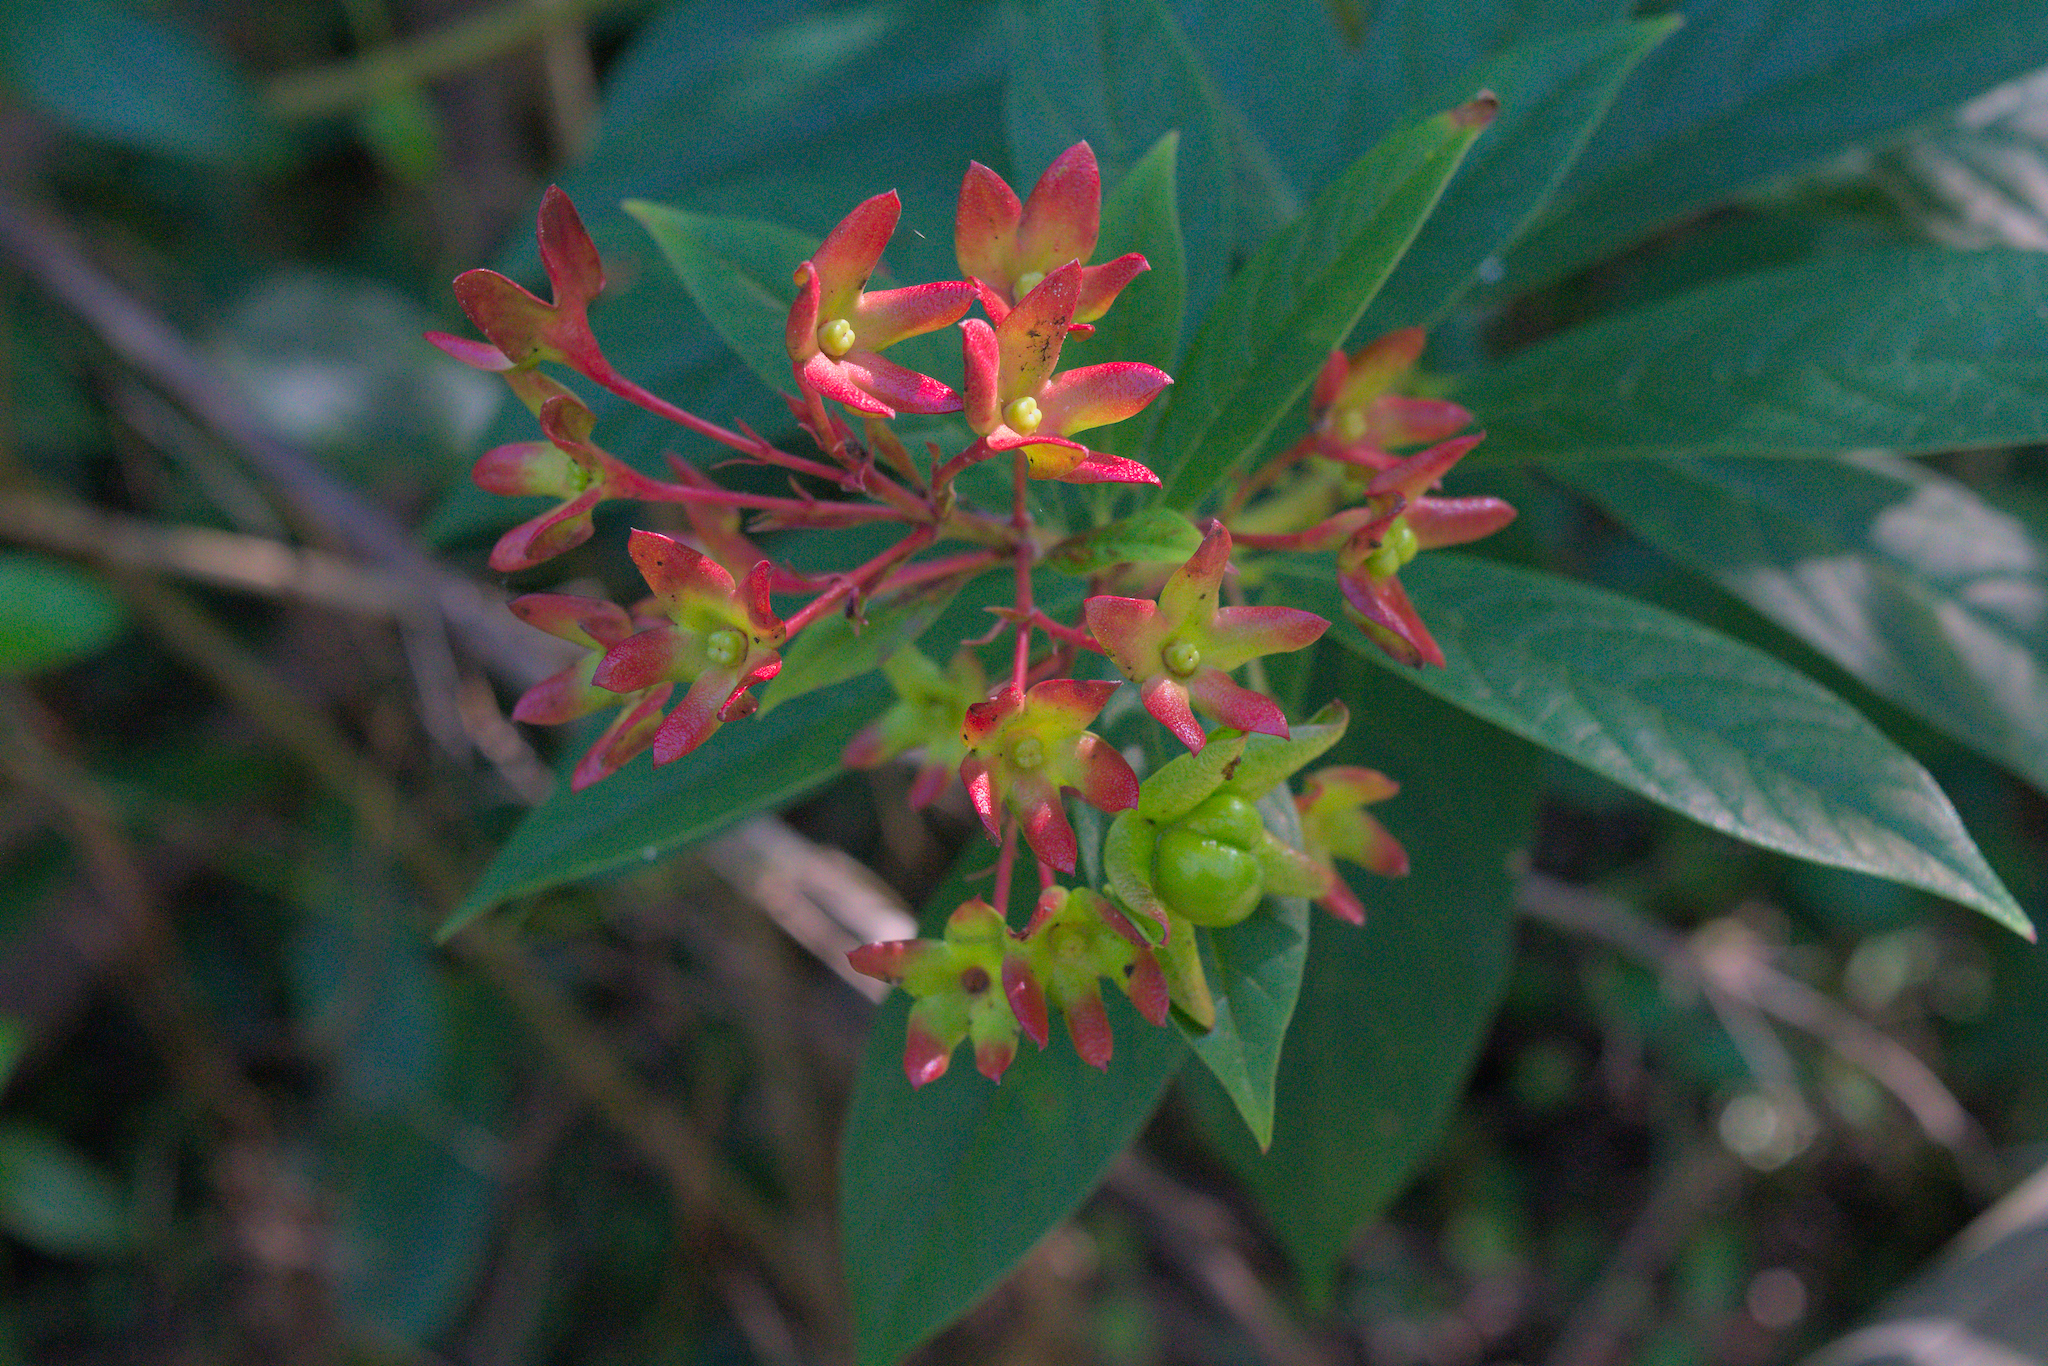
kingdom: Plantae
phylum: Tracheophyta
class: Magnoliopsida
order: Lamiales
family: Lamiaceae
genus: Clerodendrum
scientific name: Clerodendrum indicum
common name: Turk's turbin
